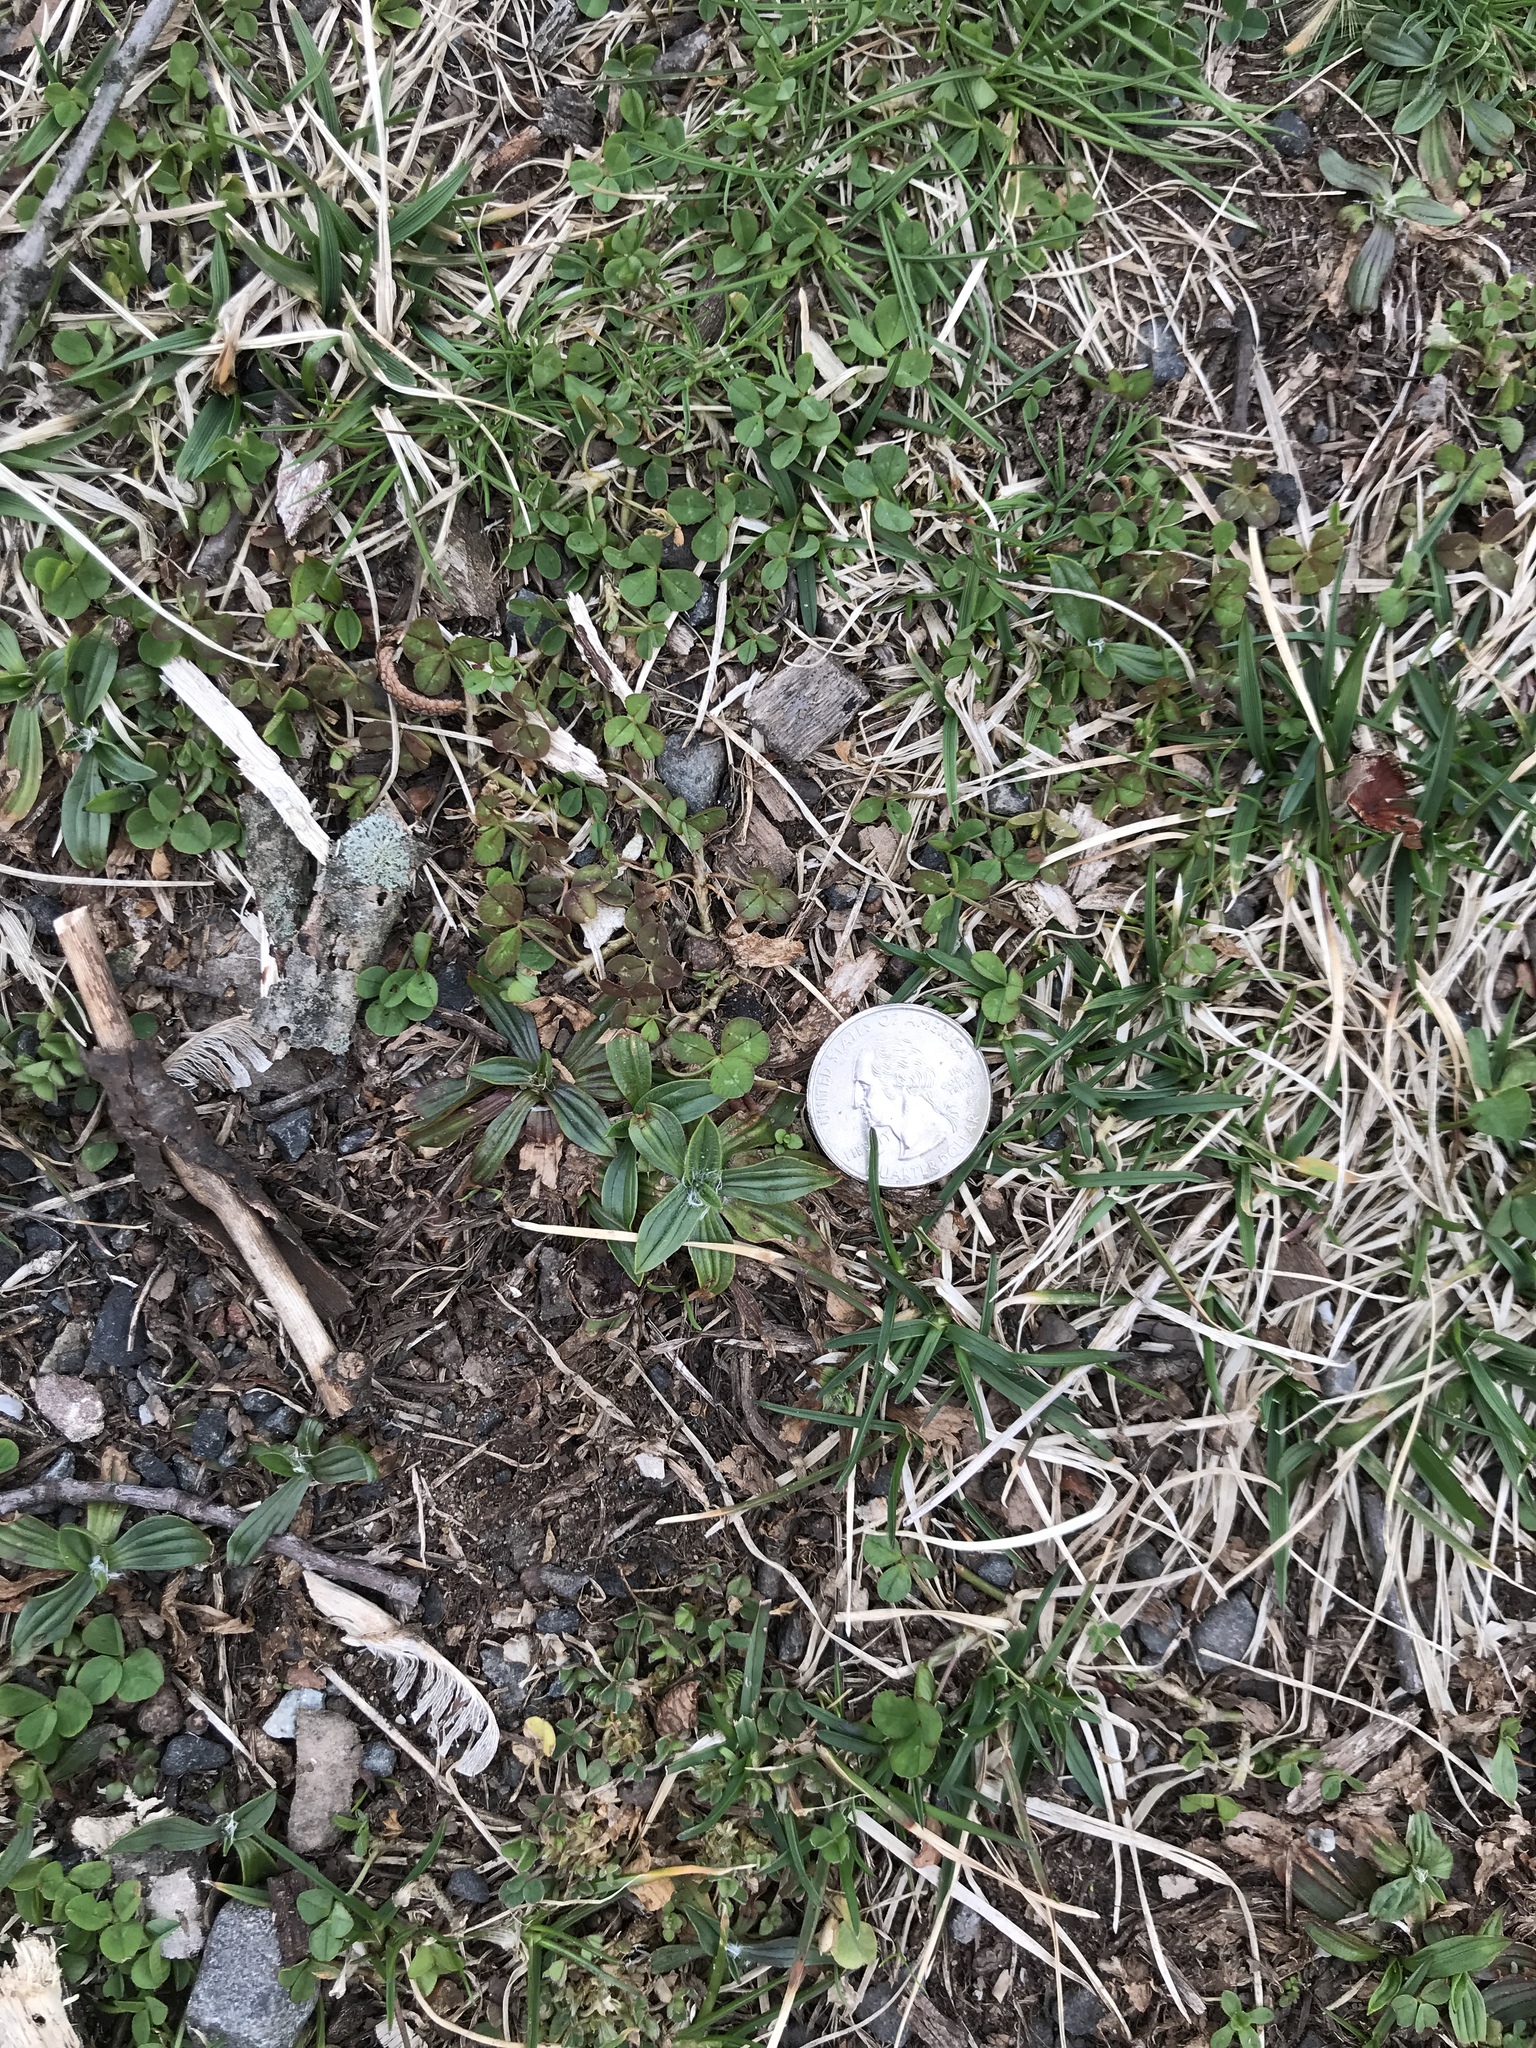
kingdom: Plantae
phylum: Tracheophyta
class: Magnoliopsida
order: Lamiales
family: Plantaginaceae
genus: Plantago
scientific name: Plantago lanceolata
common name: Ribwort plantain
